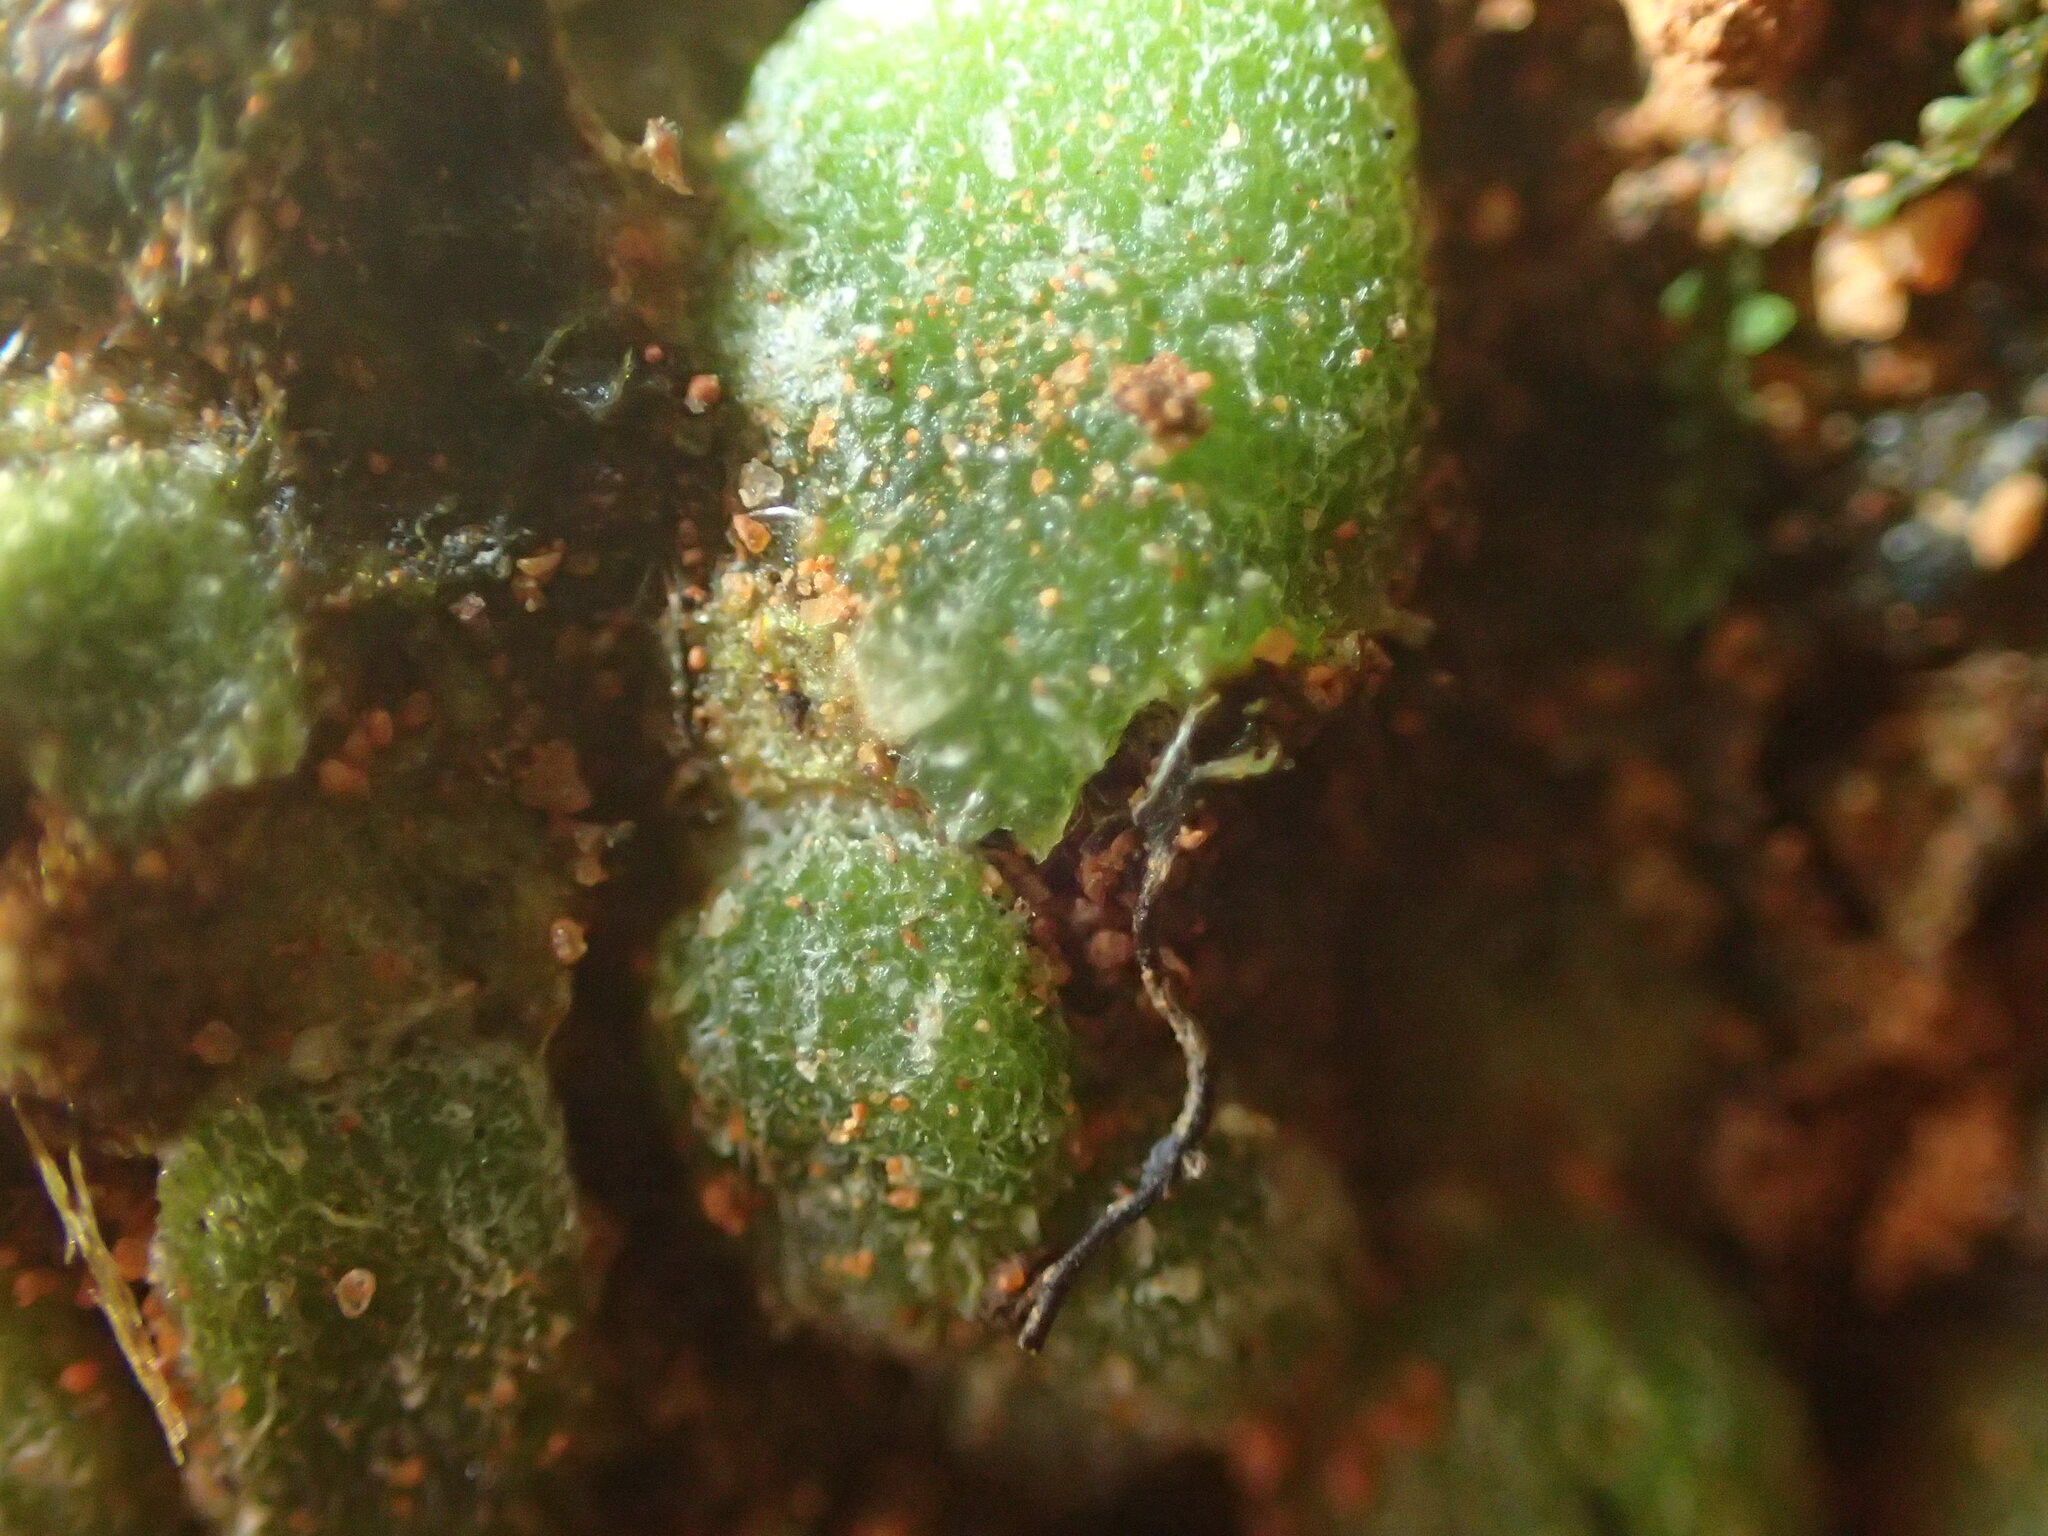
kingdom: Plantae
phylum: Marchantiophyta
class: Jungermanniopsida
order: Jungermanniales
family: Acrobolbaceae
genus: Enigmella
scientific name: Enigmella thallina
